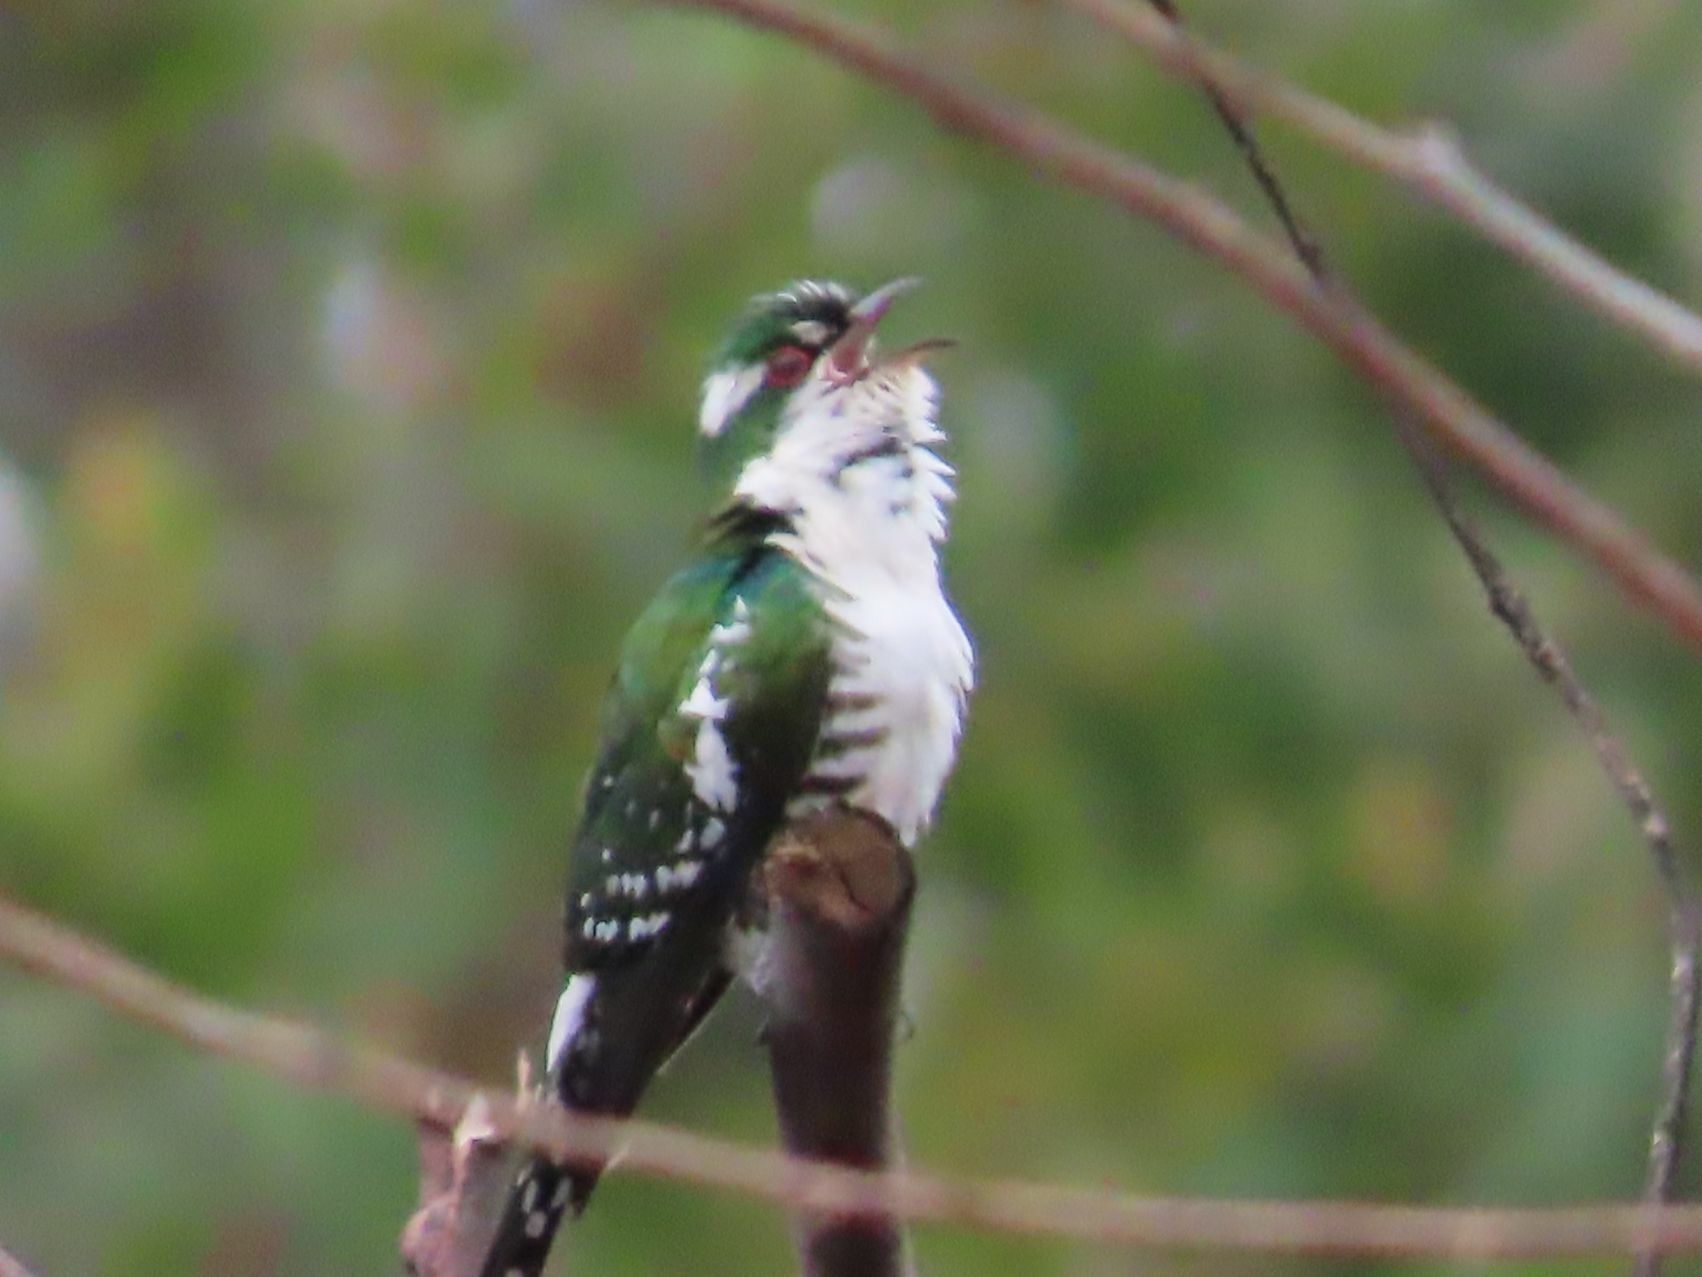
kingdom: Animalia
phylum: Chordata
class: Aves
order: Cuculiformes
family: Cuculidae
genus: Chrysococcyx
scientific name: Chrysococcyx caprius
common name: Diederik cuckoo
